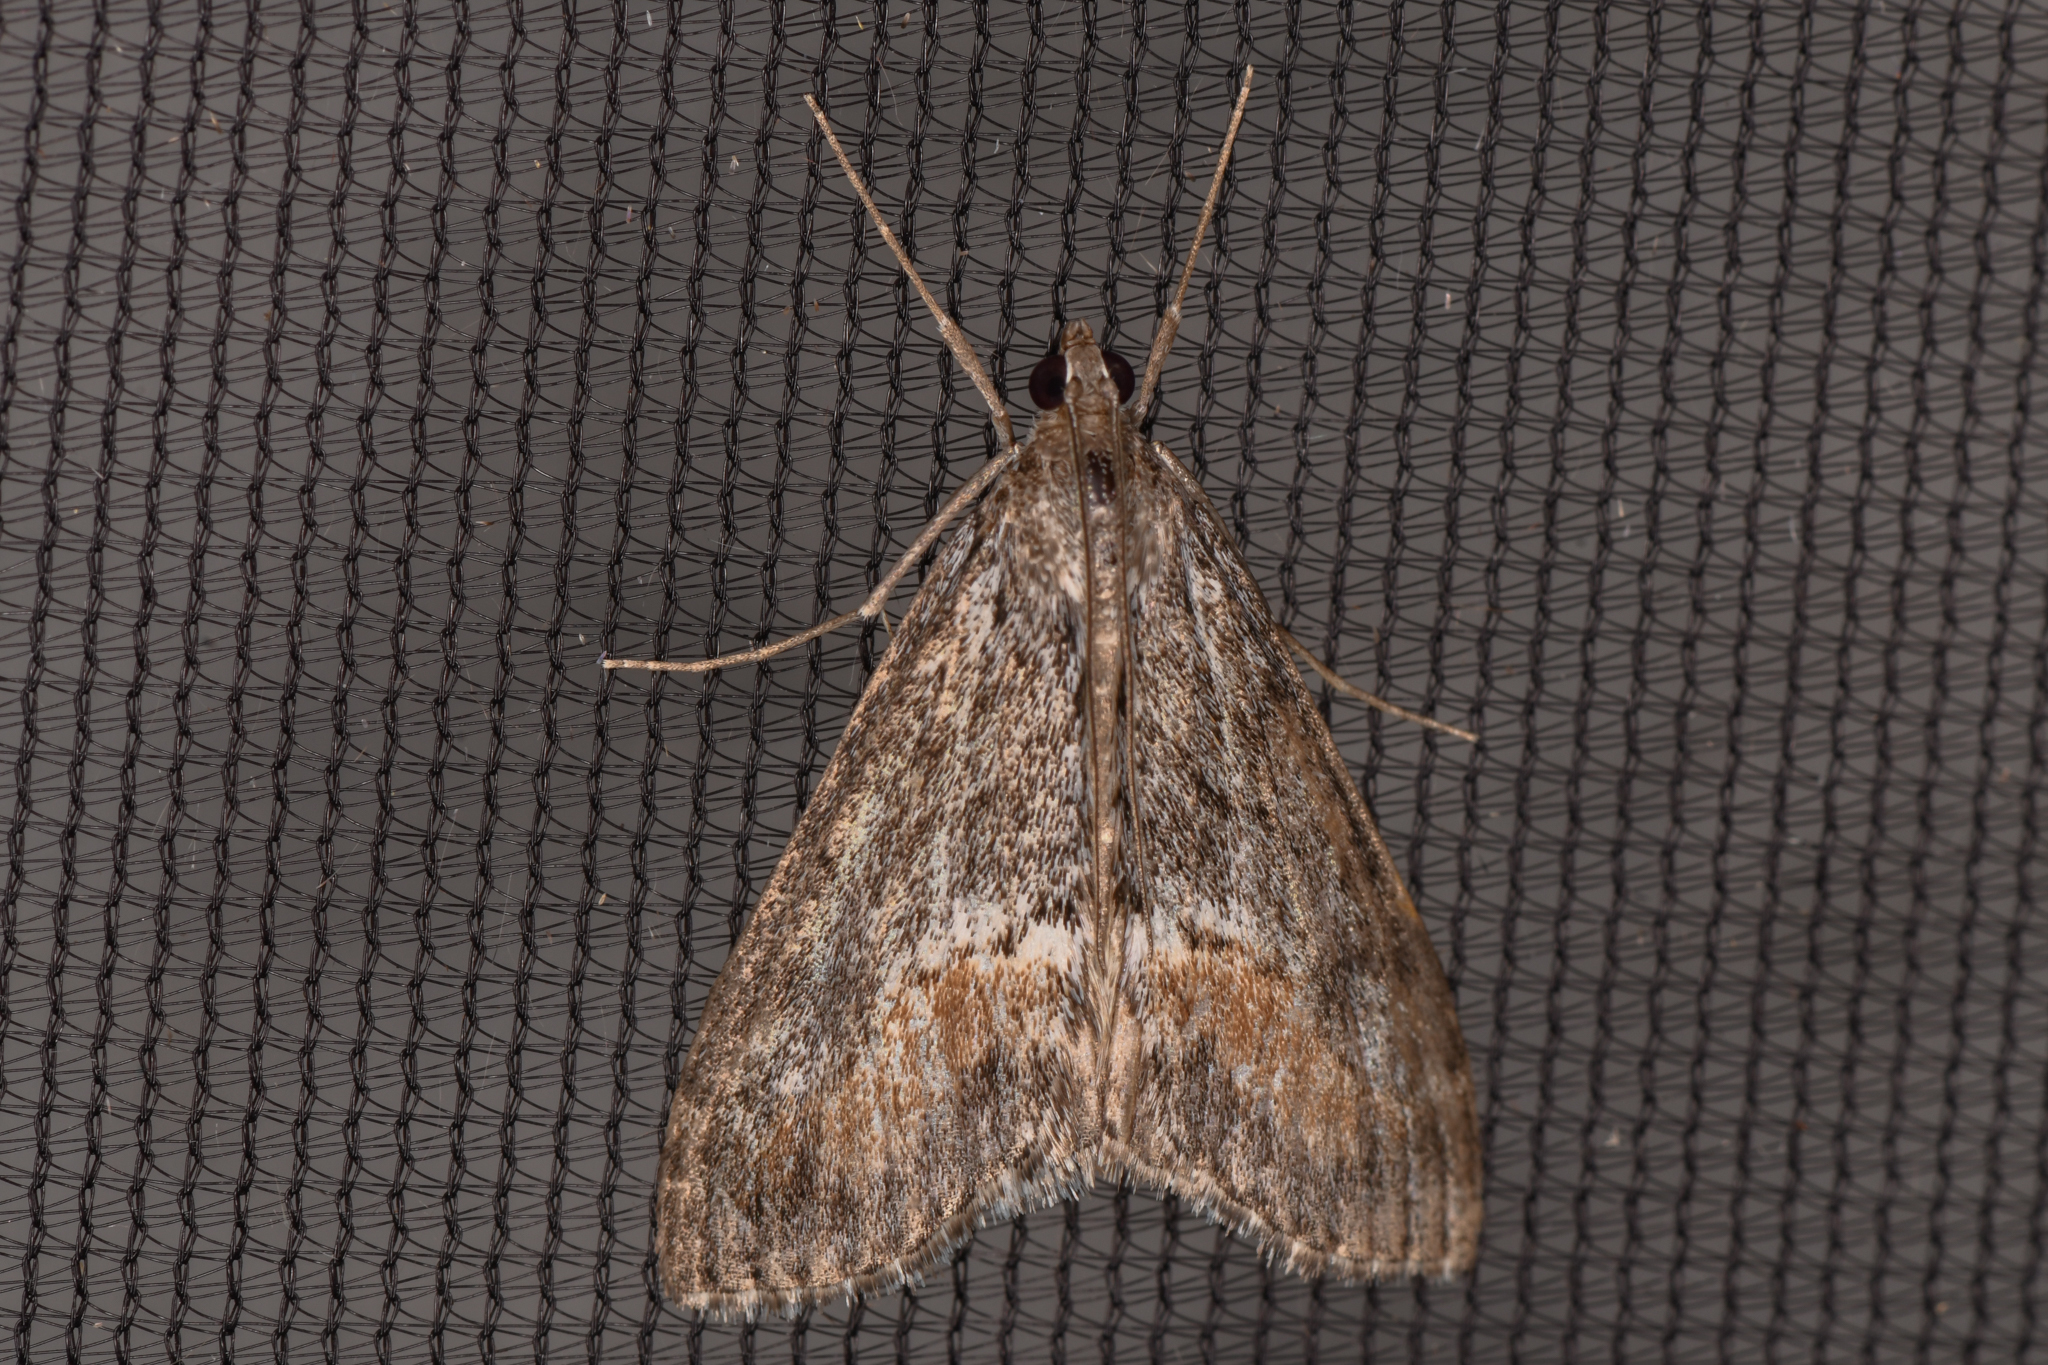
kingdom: Animalia
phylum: Arthropoda
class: Insecta
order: Lepidoptera
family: Crambidae
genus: Evergestis
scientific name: Evergestis subterminalis
